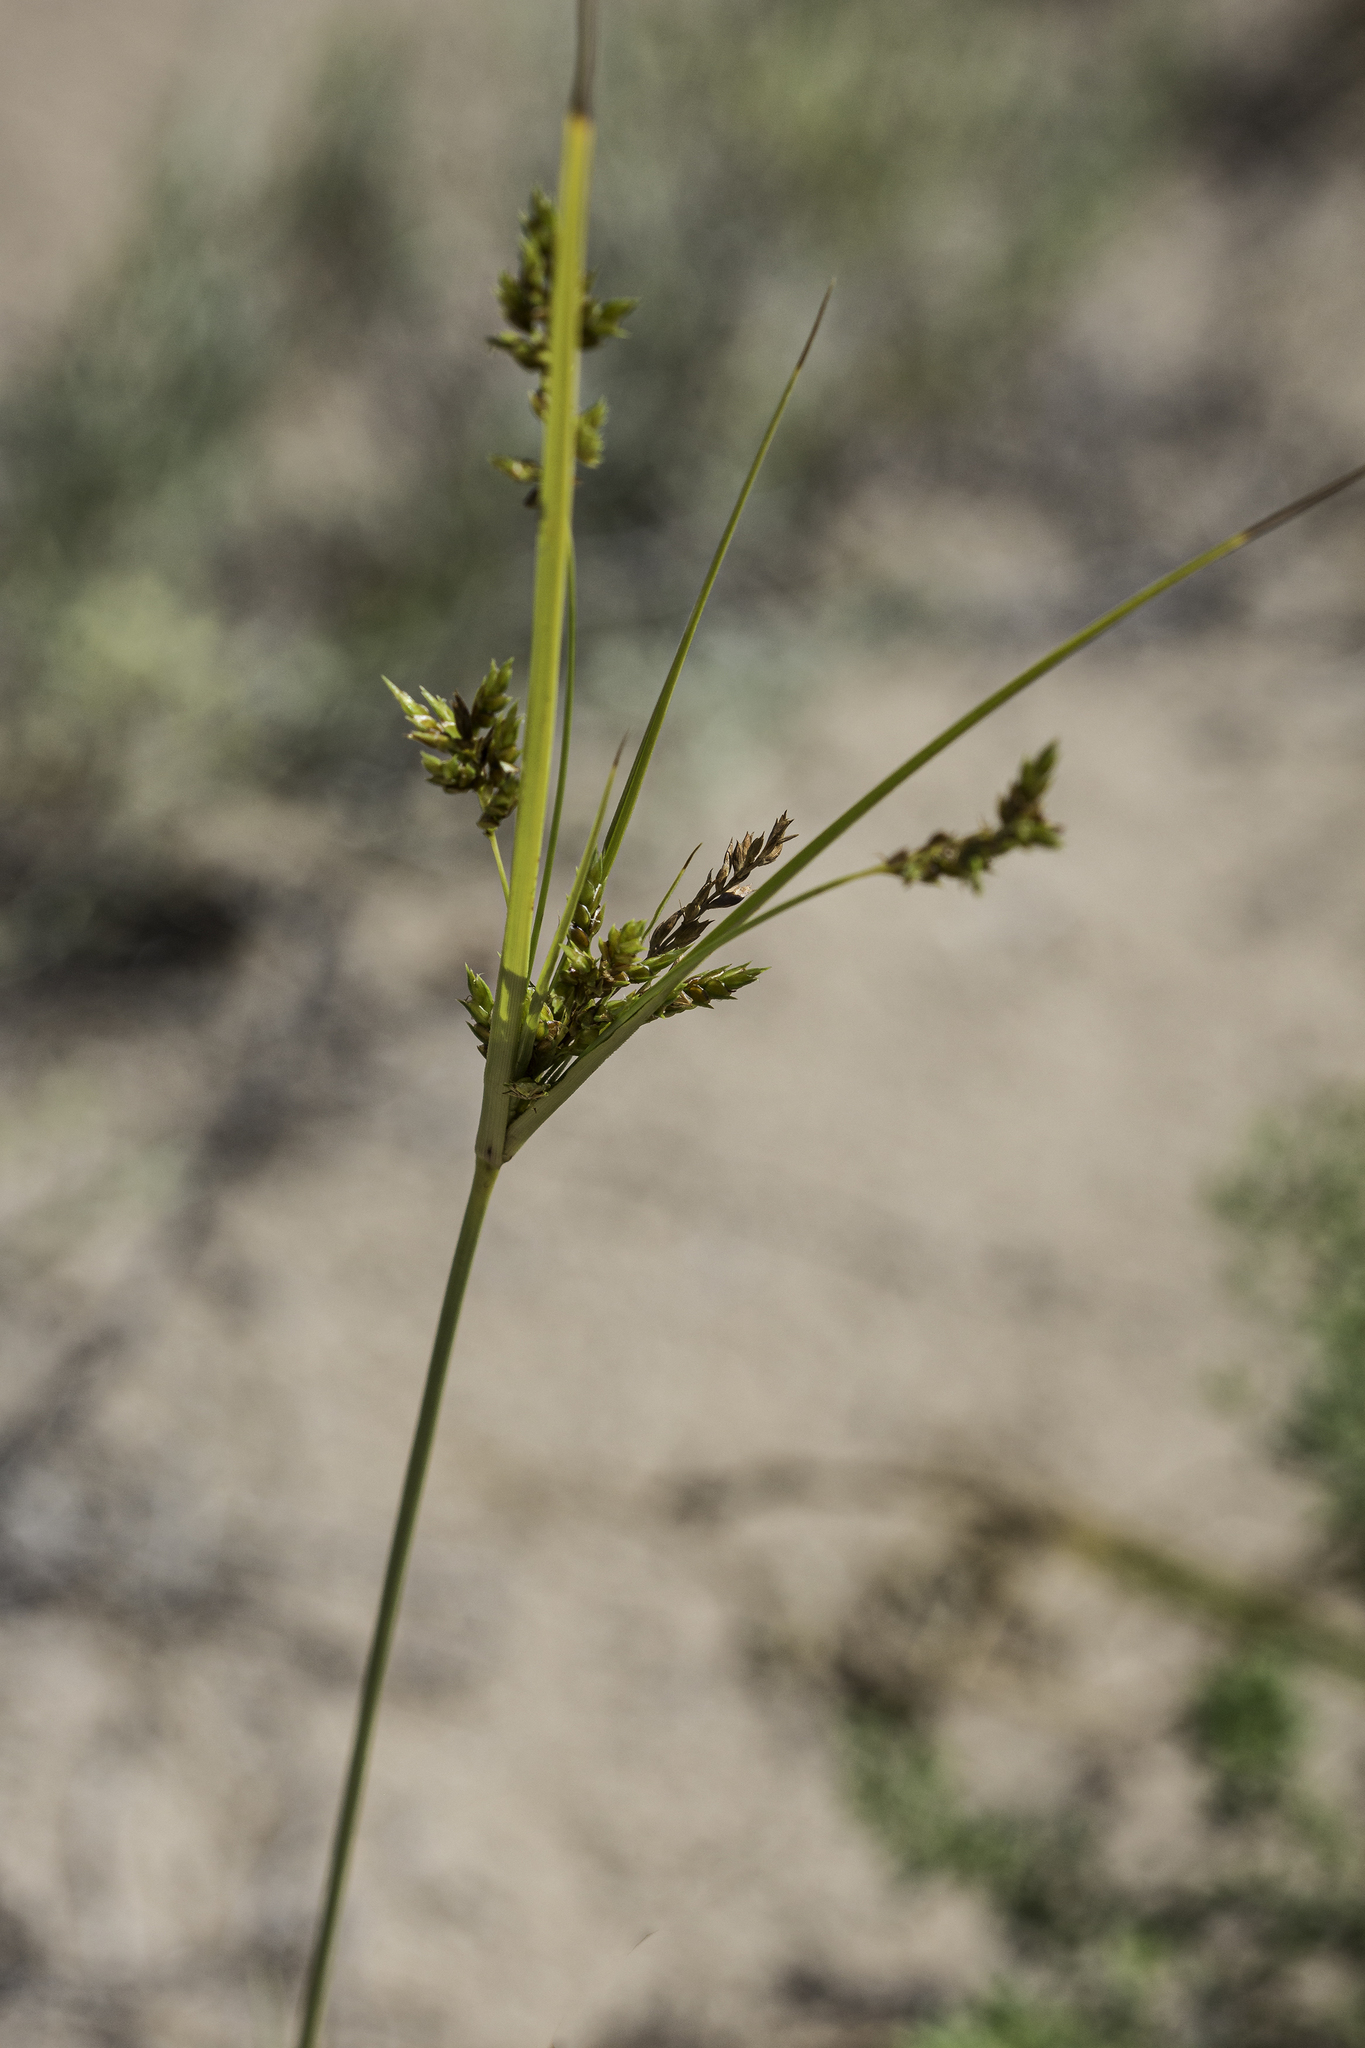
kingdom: Plantae
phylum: Tracheophyta
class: Liliopsida
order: Poales
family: Cyperaceae
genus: Cyperus
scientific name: Cyperus schweinitzii
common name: Schweinitz's cyperus
